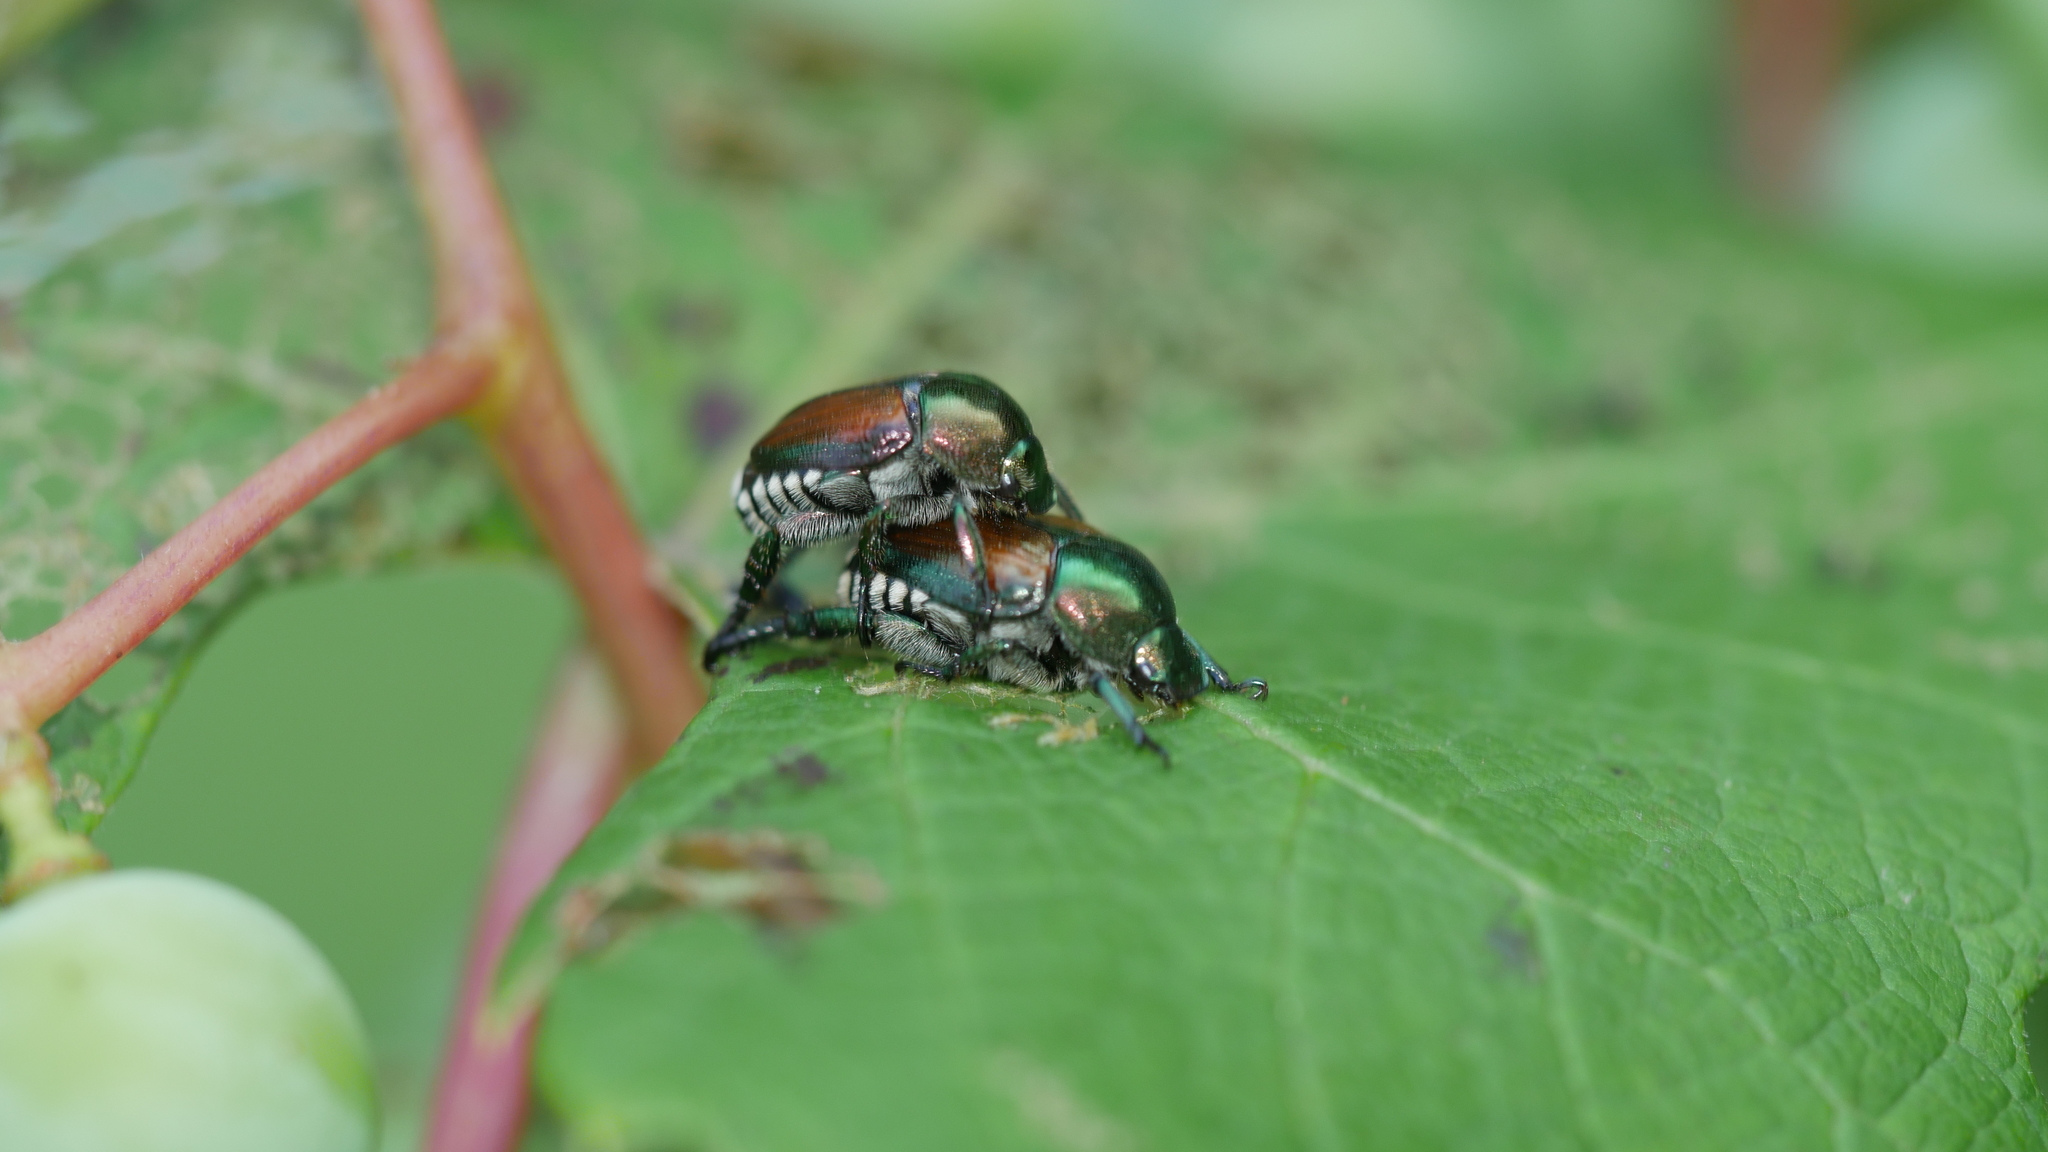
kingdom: Animalia
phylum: Arthropoda
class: Insecta
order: Coleoptera
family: Scarabaeidae
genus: Popillia
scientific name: Popillia japonica
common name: Japanese beetle
